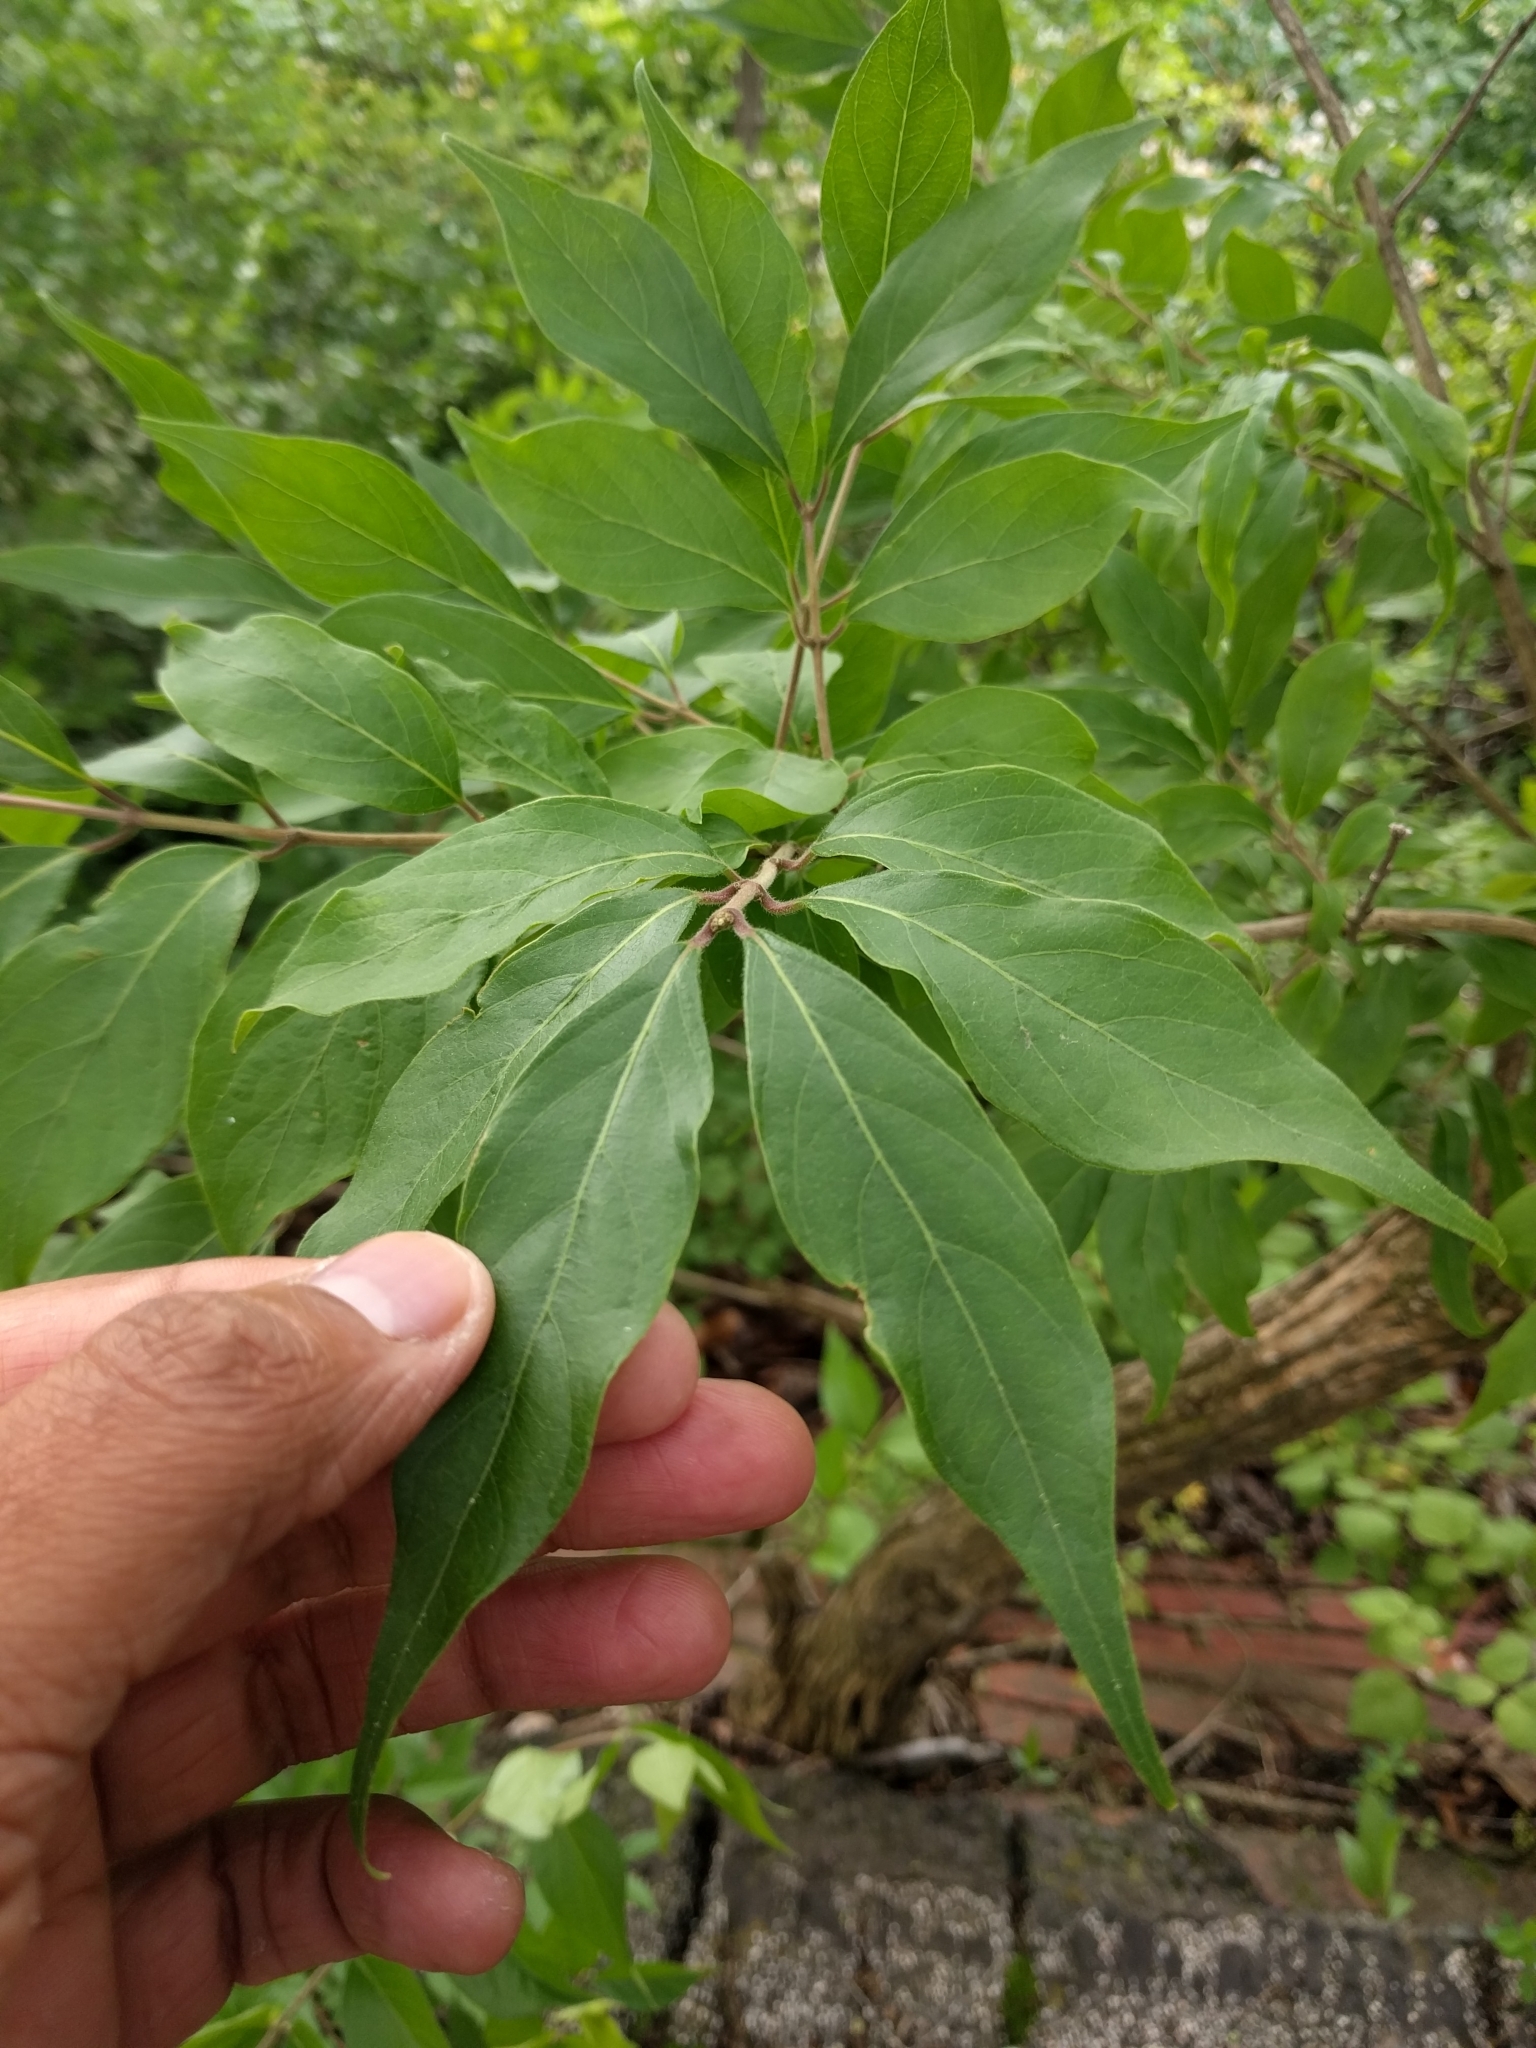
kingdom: Plantae
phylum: Tracheophyta
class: Magnoliopsida
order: Dipsacales
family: Caprifoliaceae
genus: Lonicera
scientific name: Lonicera maackii
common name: Amur honeysuckle
